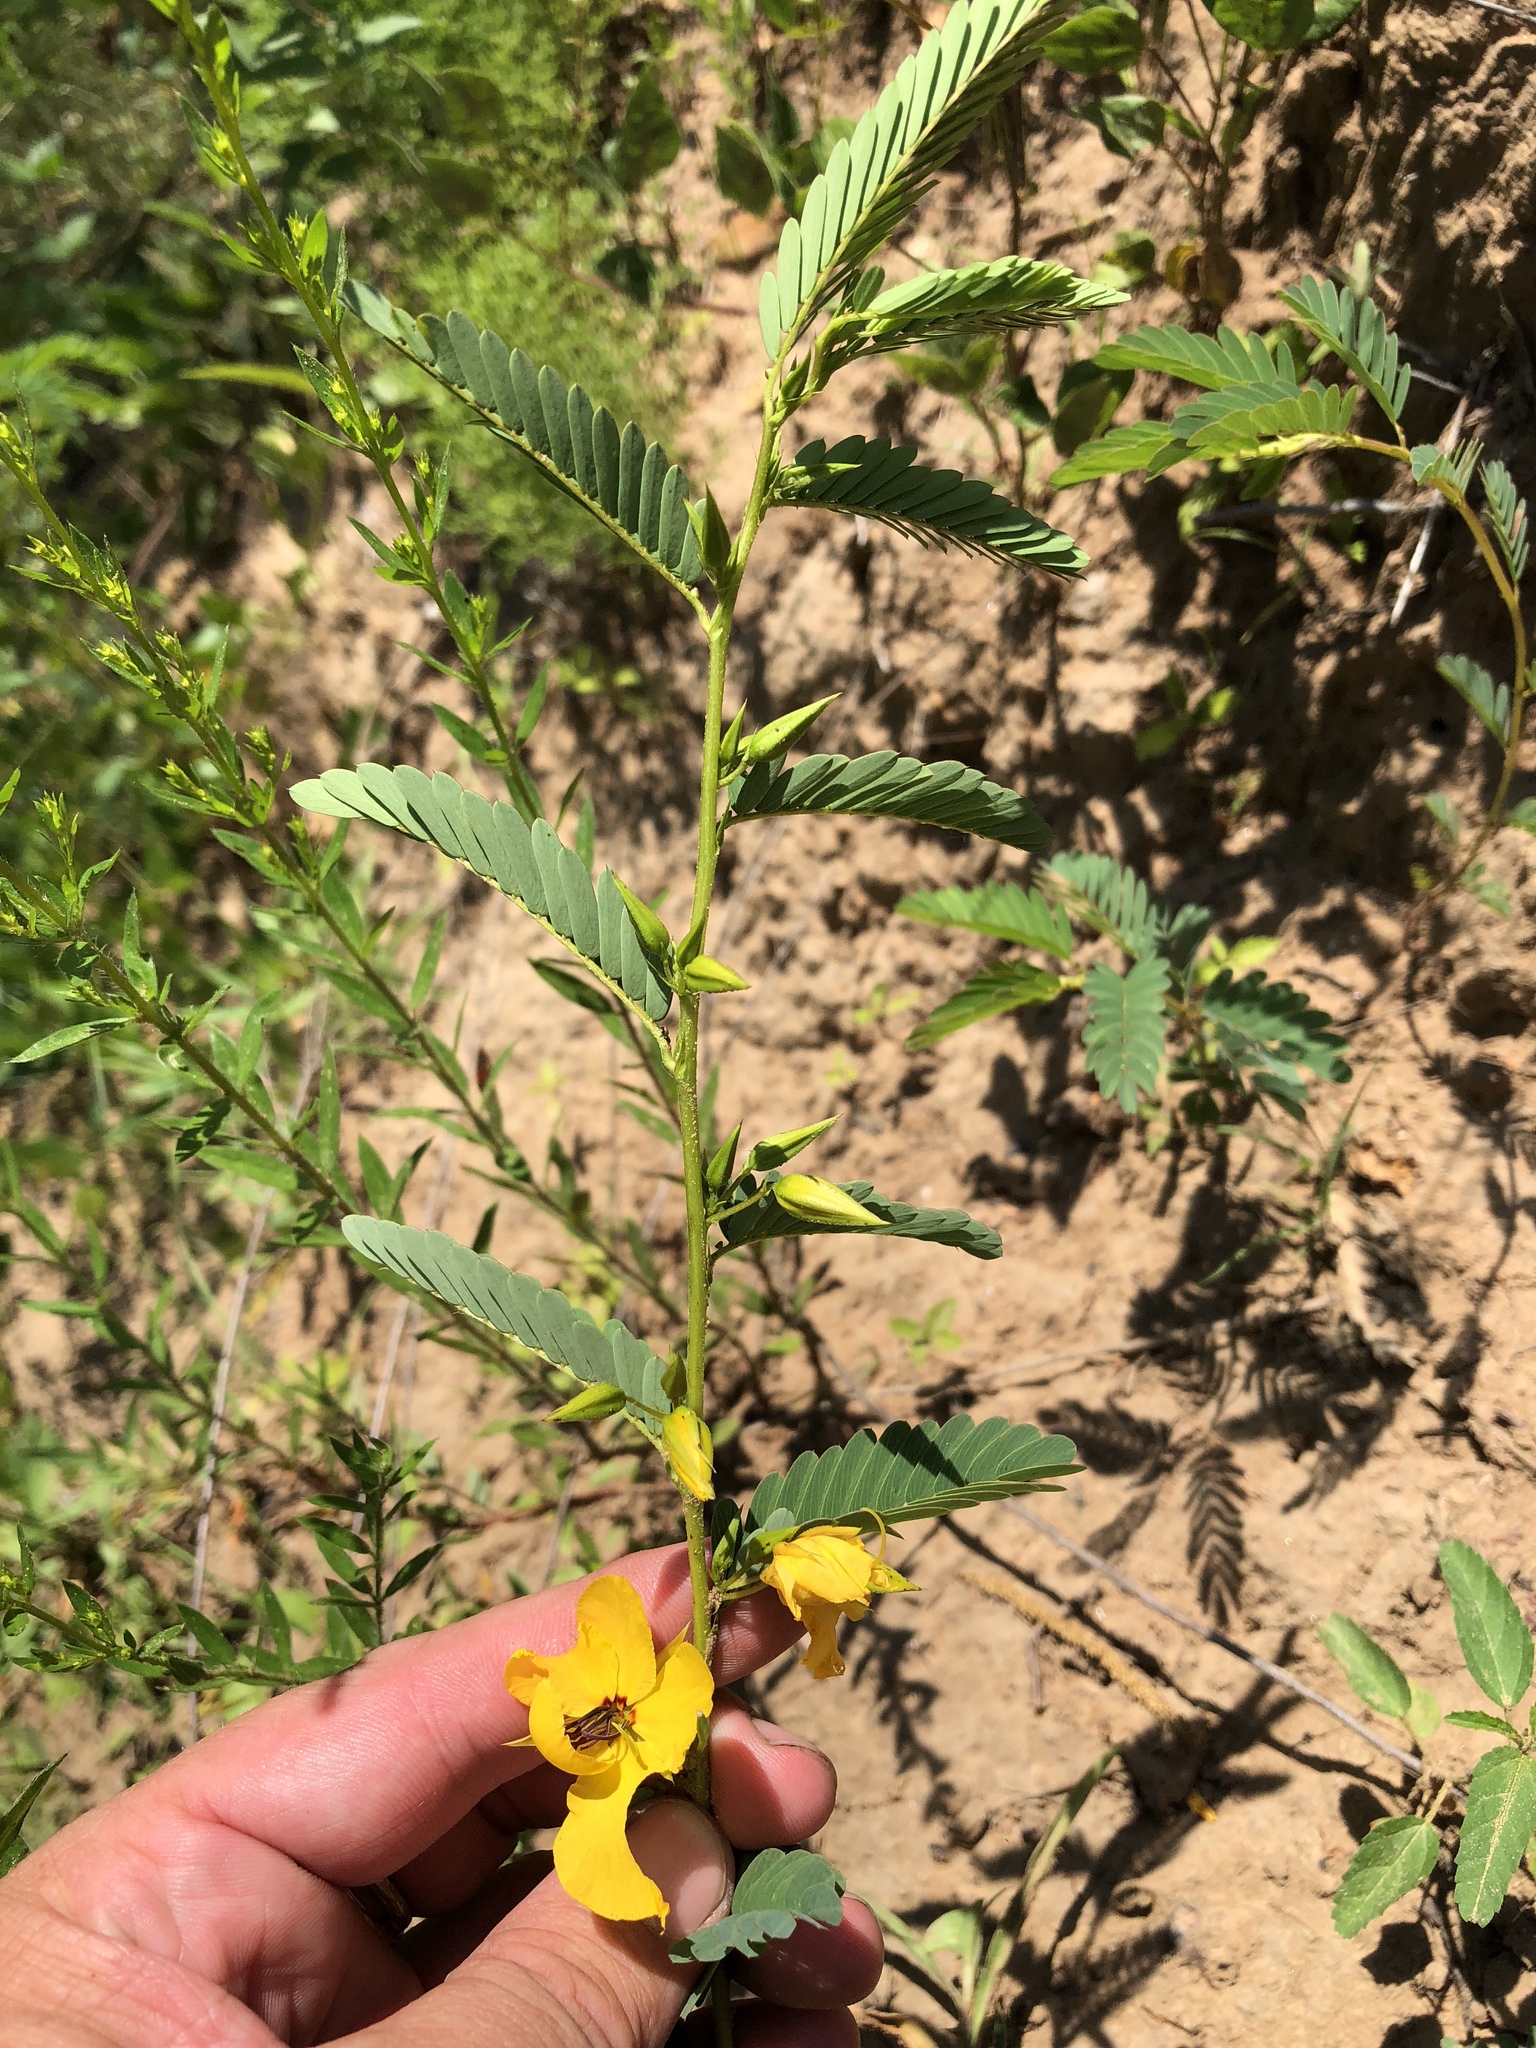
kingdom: Plantae
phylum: Tracheophyta
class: Magnoliopsida
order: Fabales
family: Fabaceae
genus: Chamaecrista
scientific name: Chamaecrista fasciculata
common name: Golden cassia
